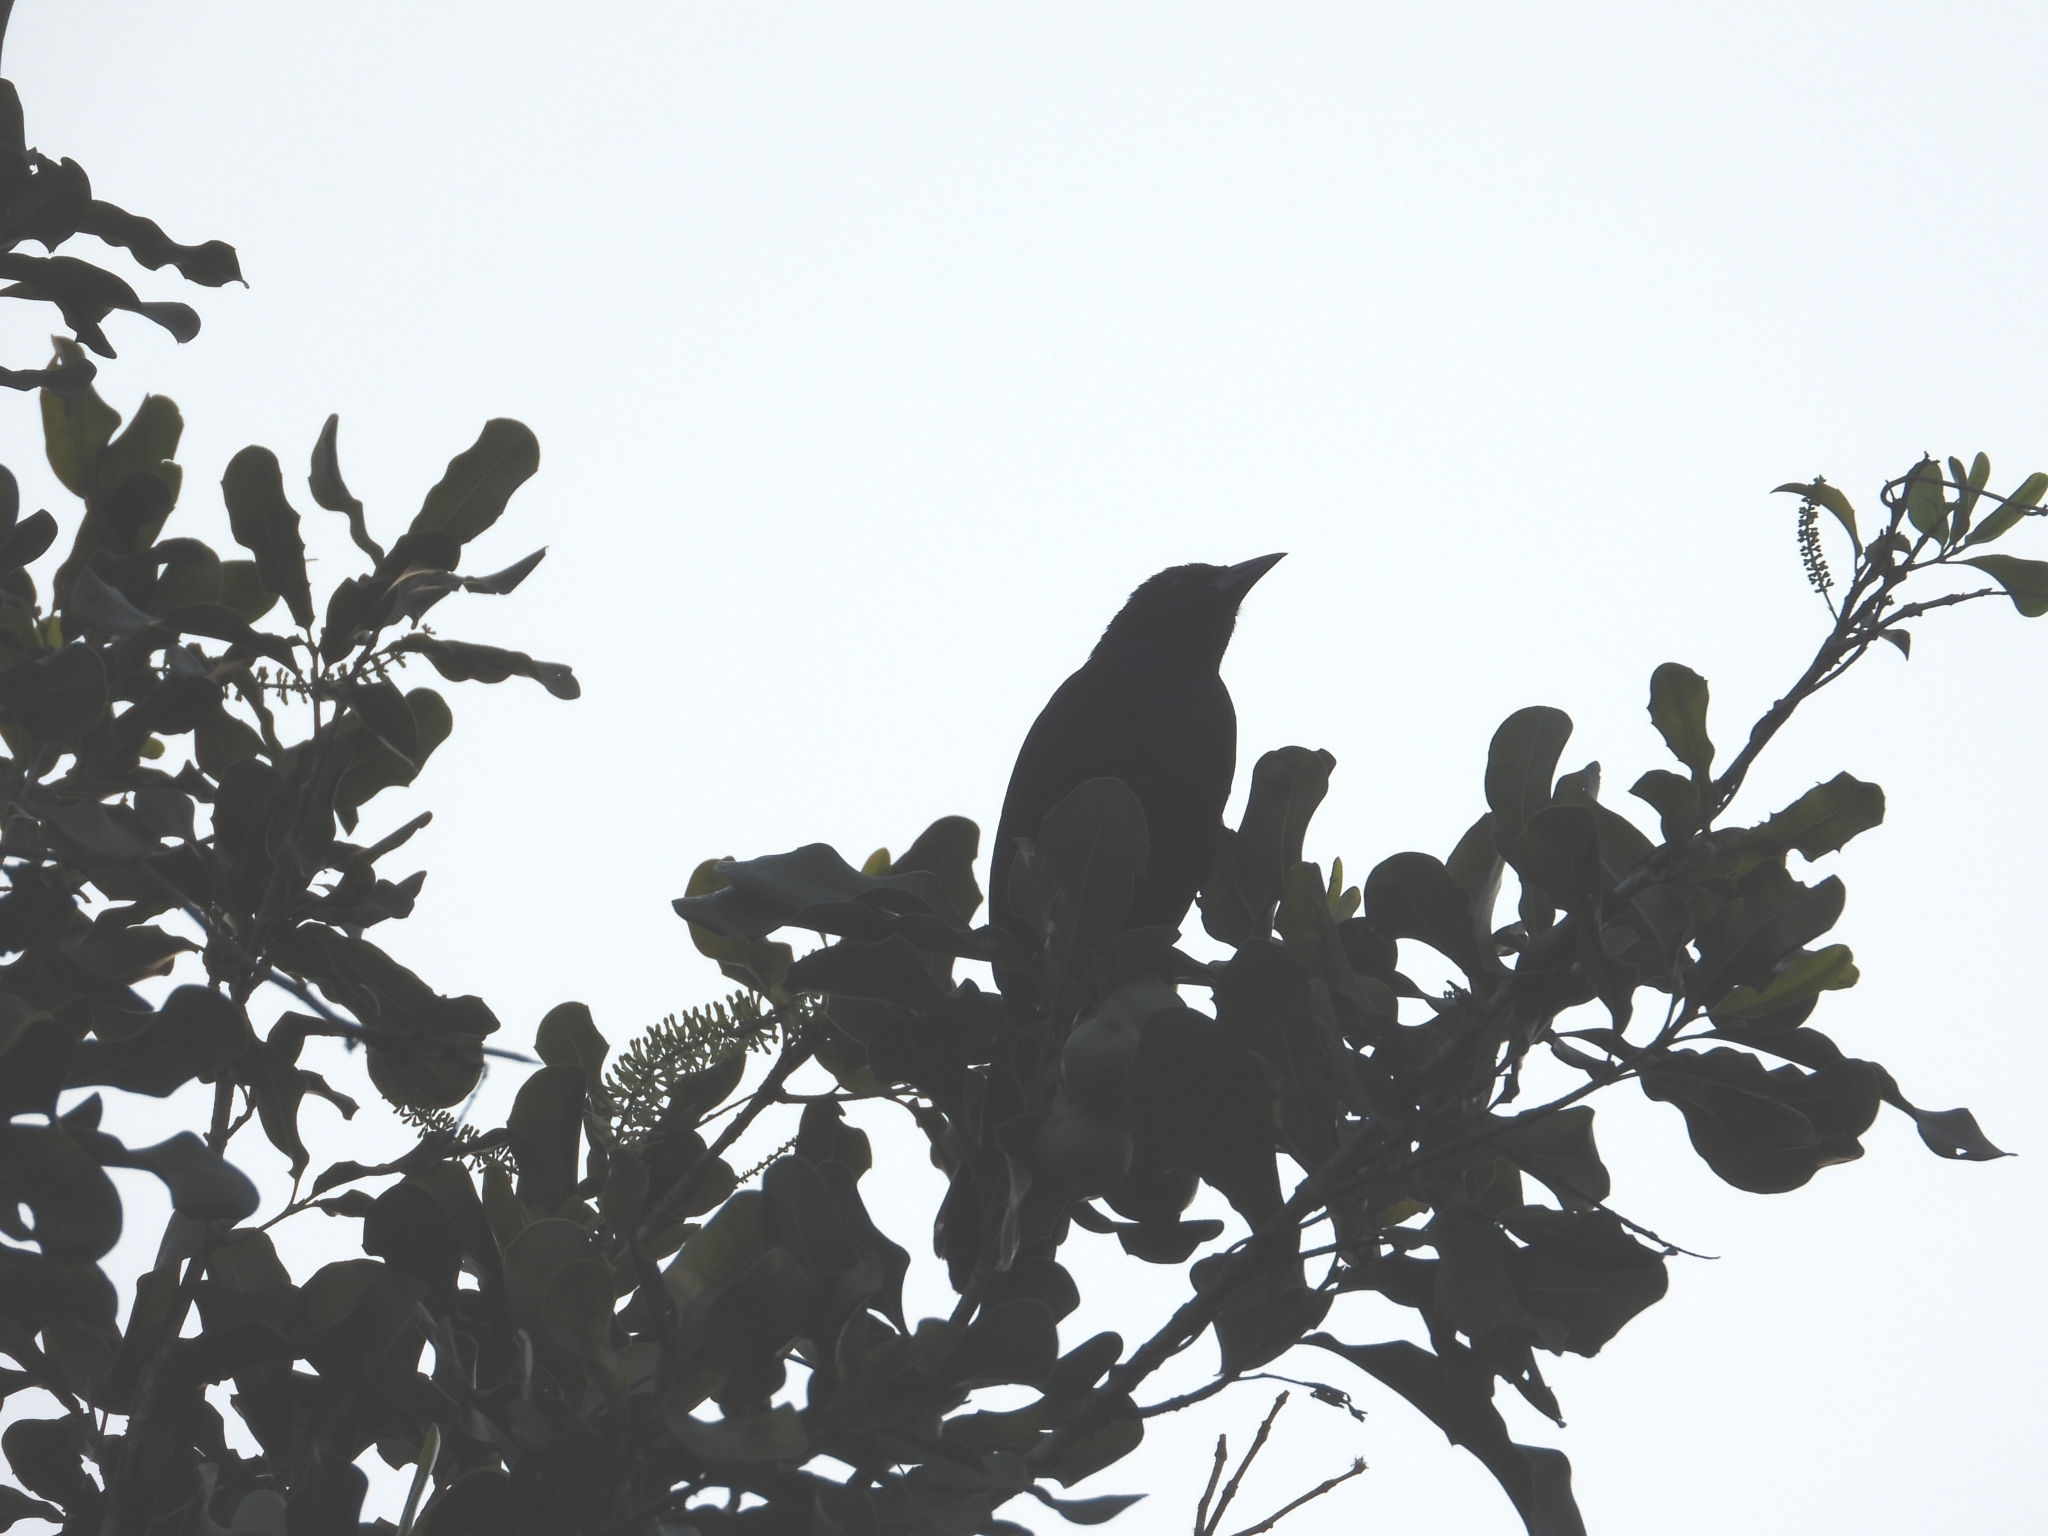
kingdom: Animalia
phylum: Chordata
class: Aves
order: Passeriformes
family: Icteridae
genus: Quiscalus
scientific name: Quiscalus mexicanus
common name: Great-tailed grackle
